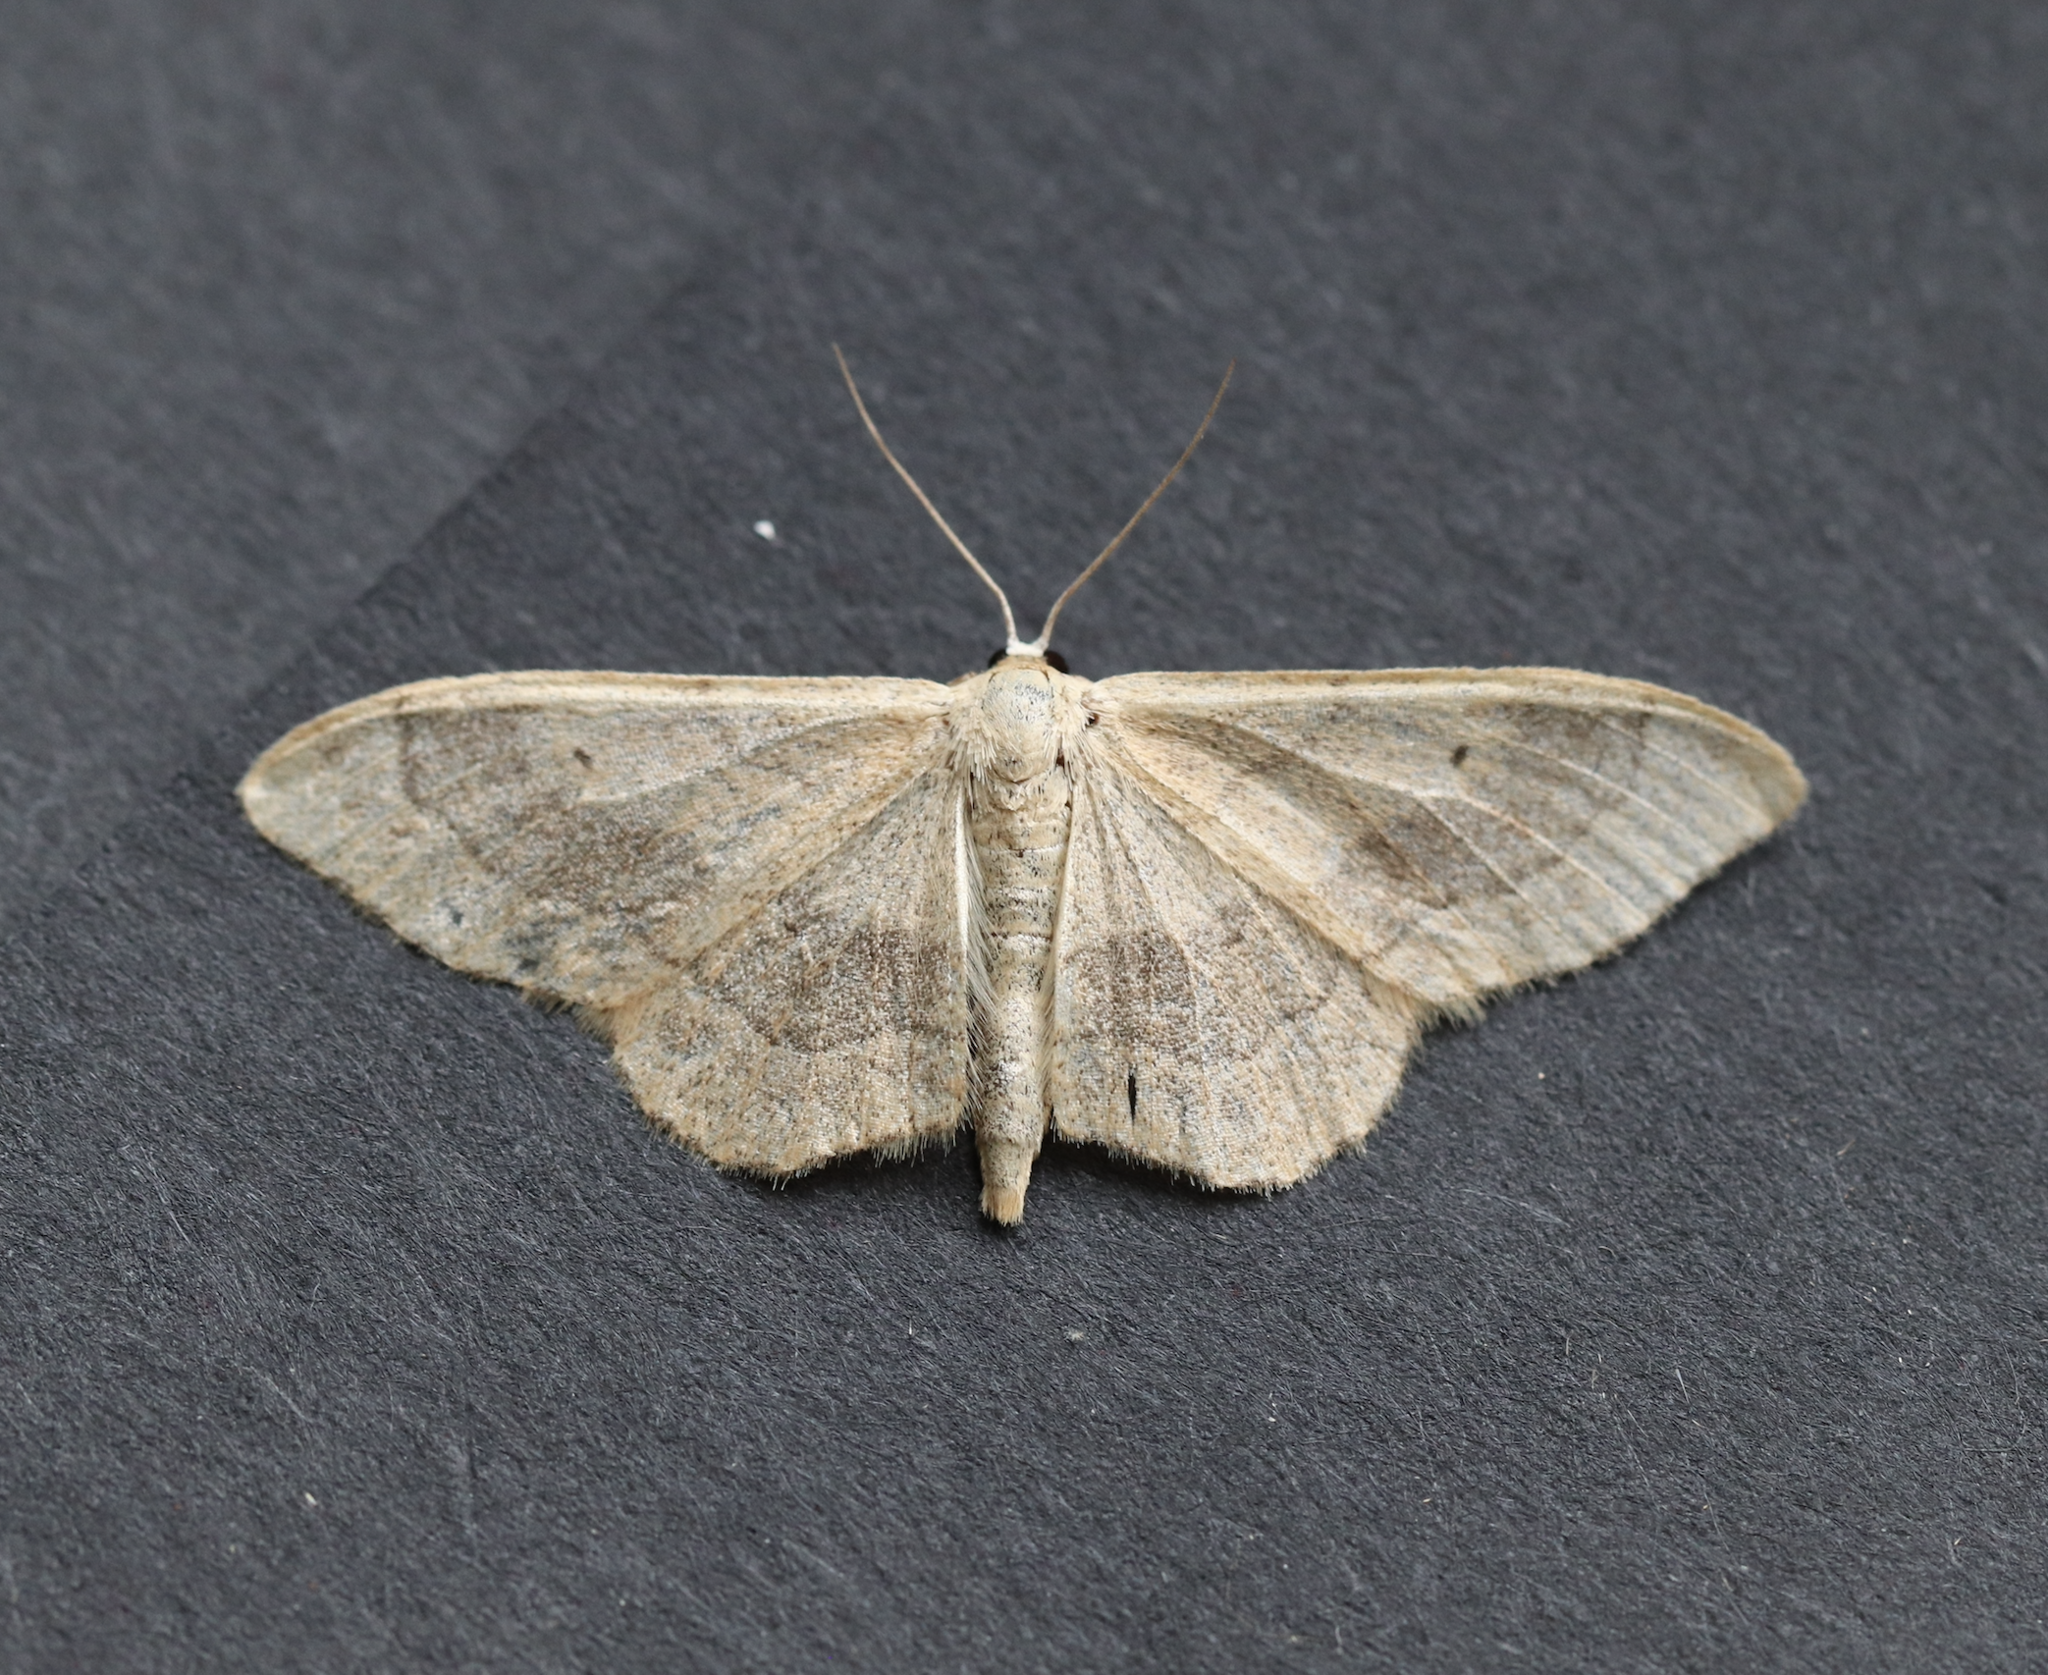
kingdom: Animalia
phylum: Arthropoda
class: Insecta
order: Lepidoptera
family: Geometridae
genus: Idaea
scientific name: Idaea aversata
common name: Riband wave
